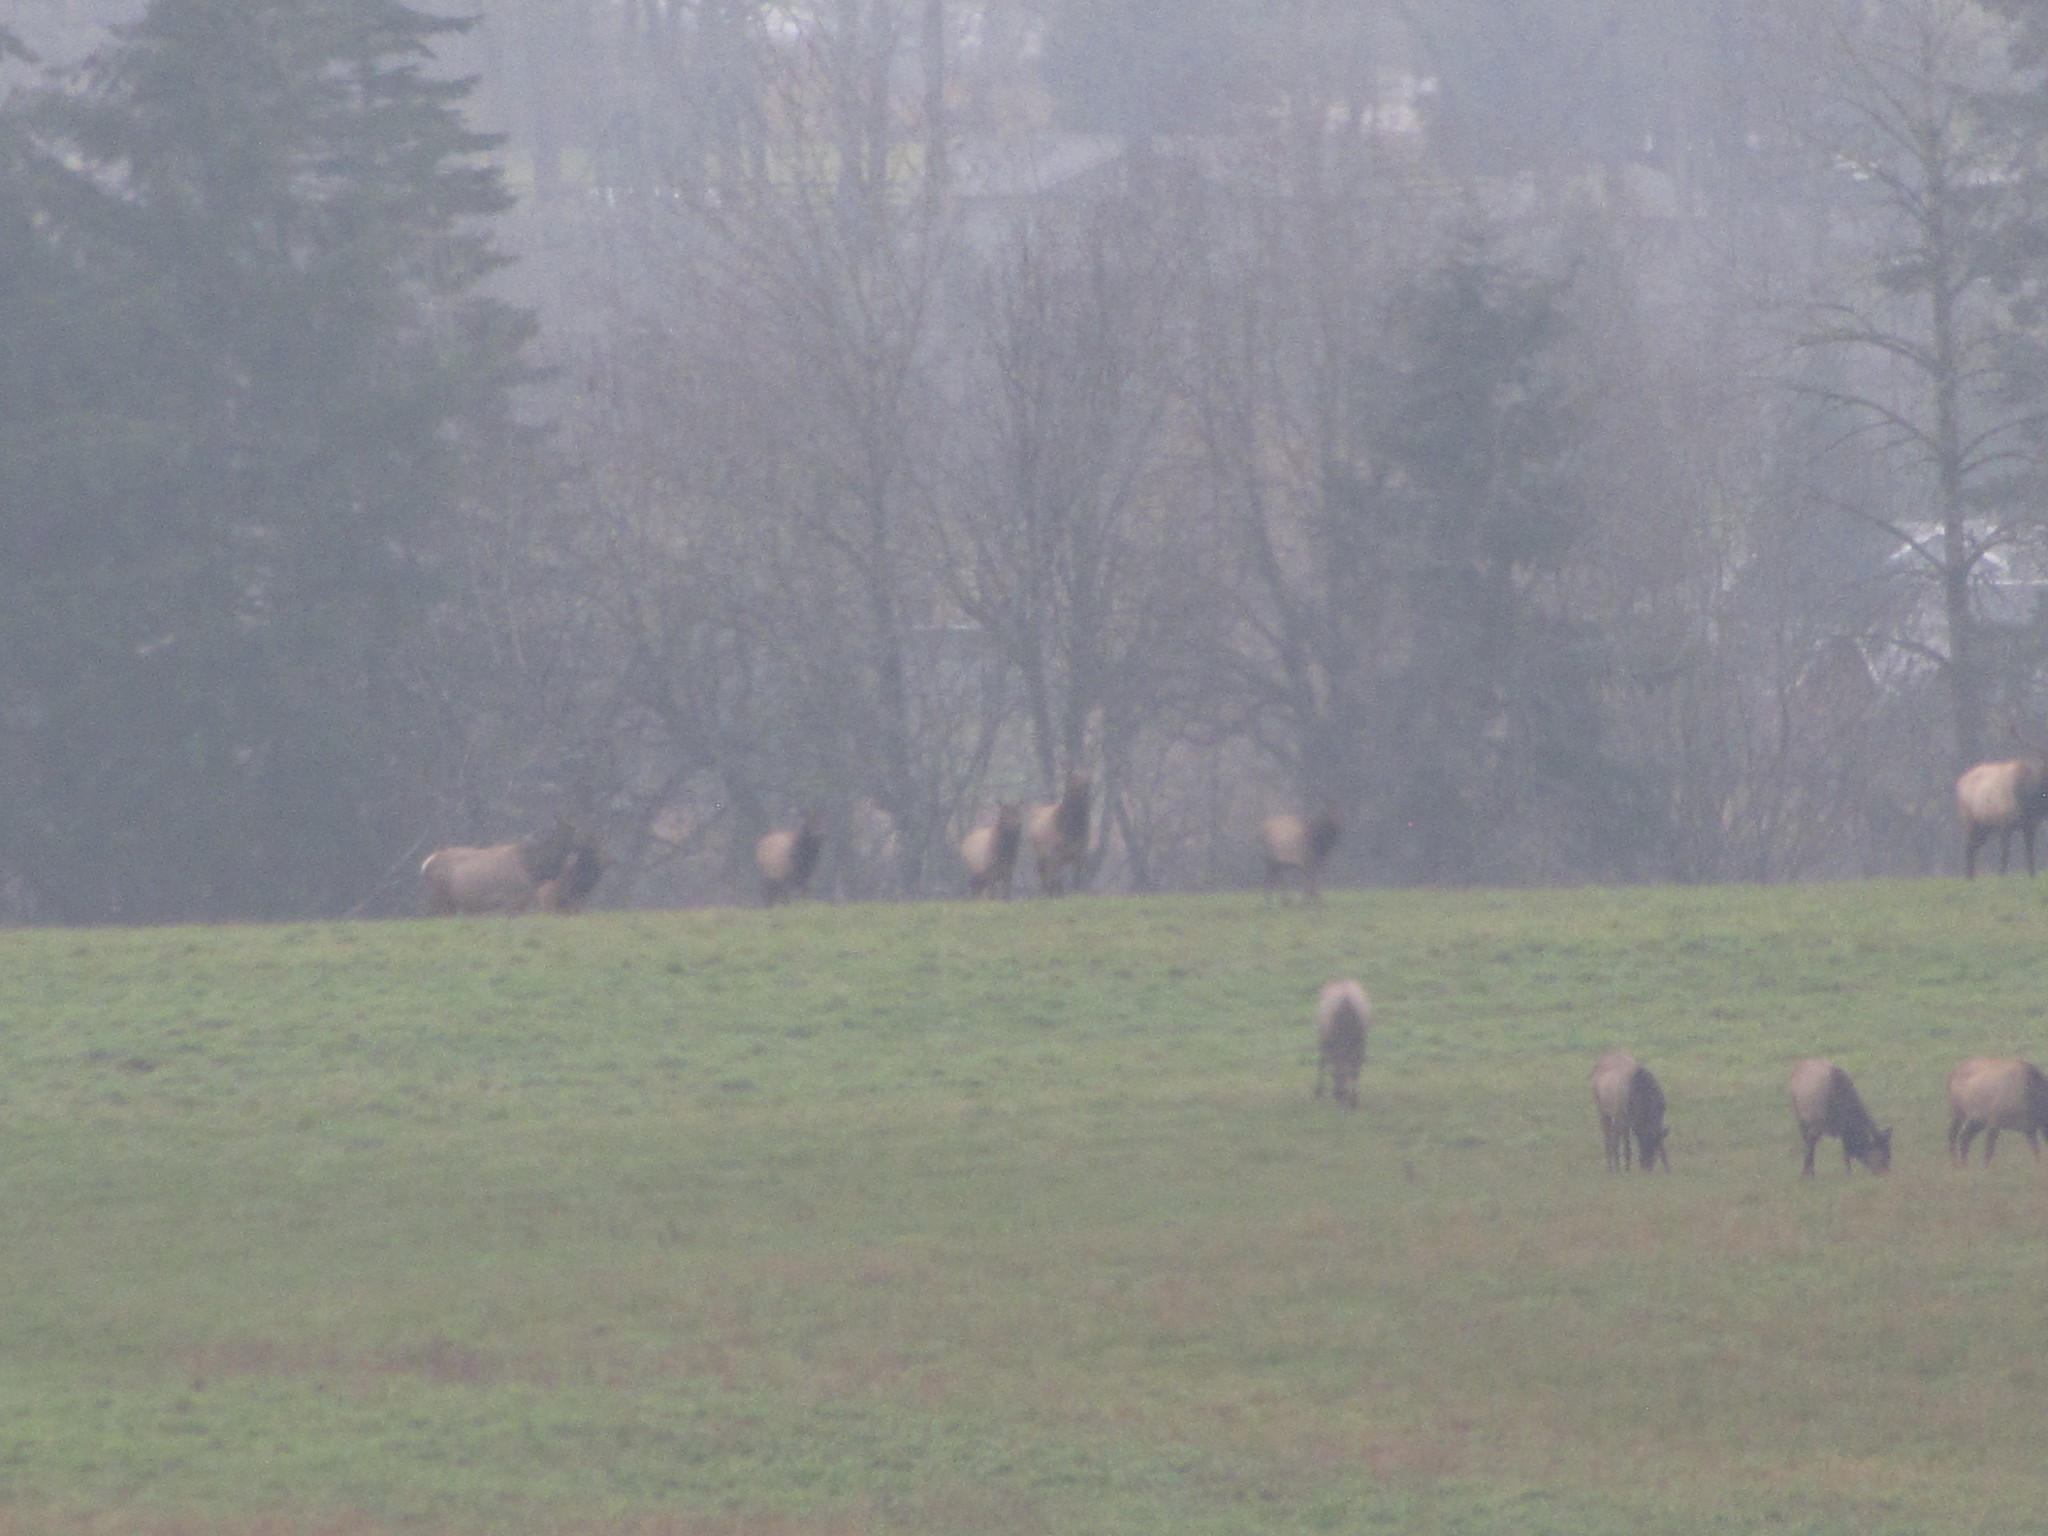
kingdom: Animalia
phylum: Chordata
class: Mammalia
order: Artiodactyla
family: Cervidae
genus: Cervus
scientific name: Cervus elaphus
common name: Red deer
